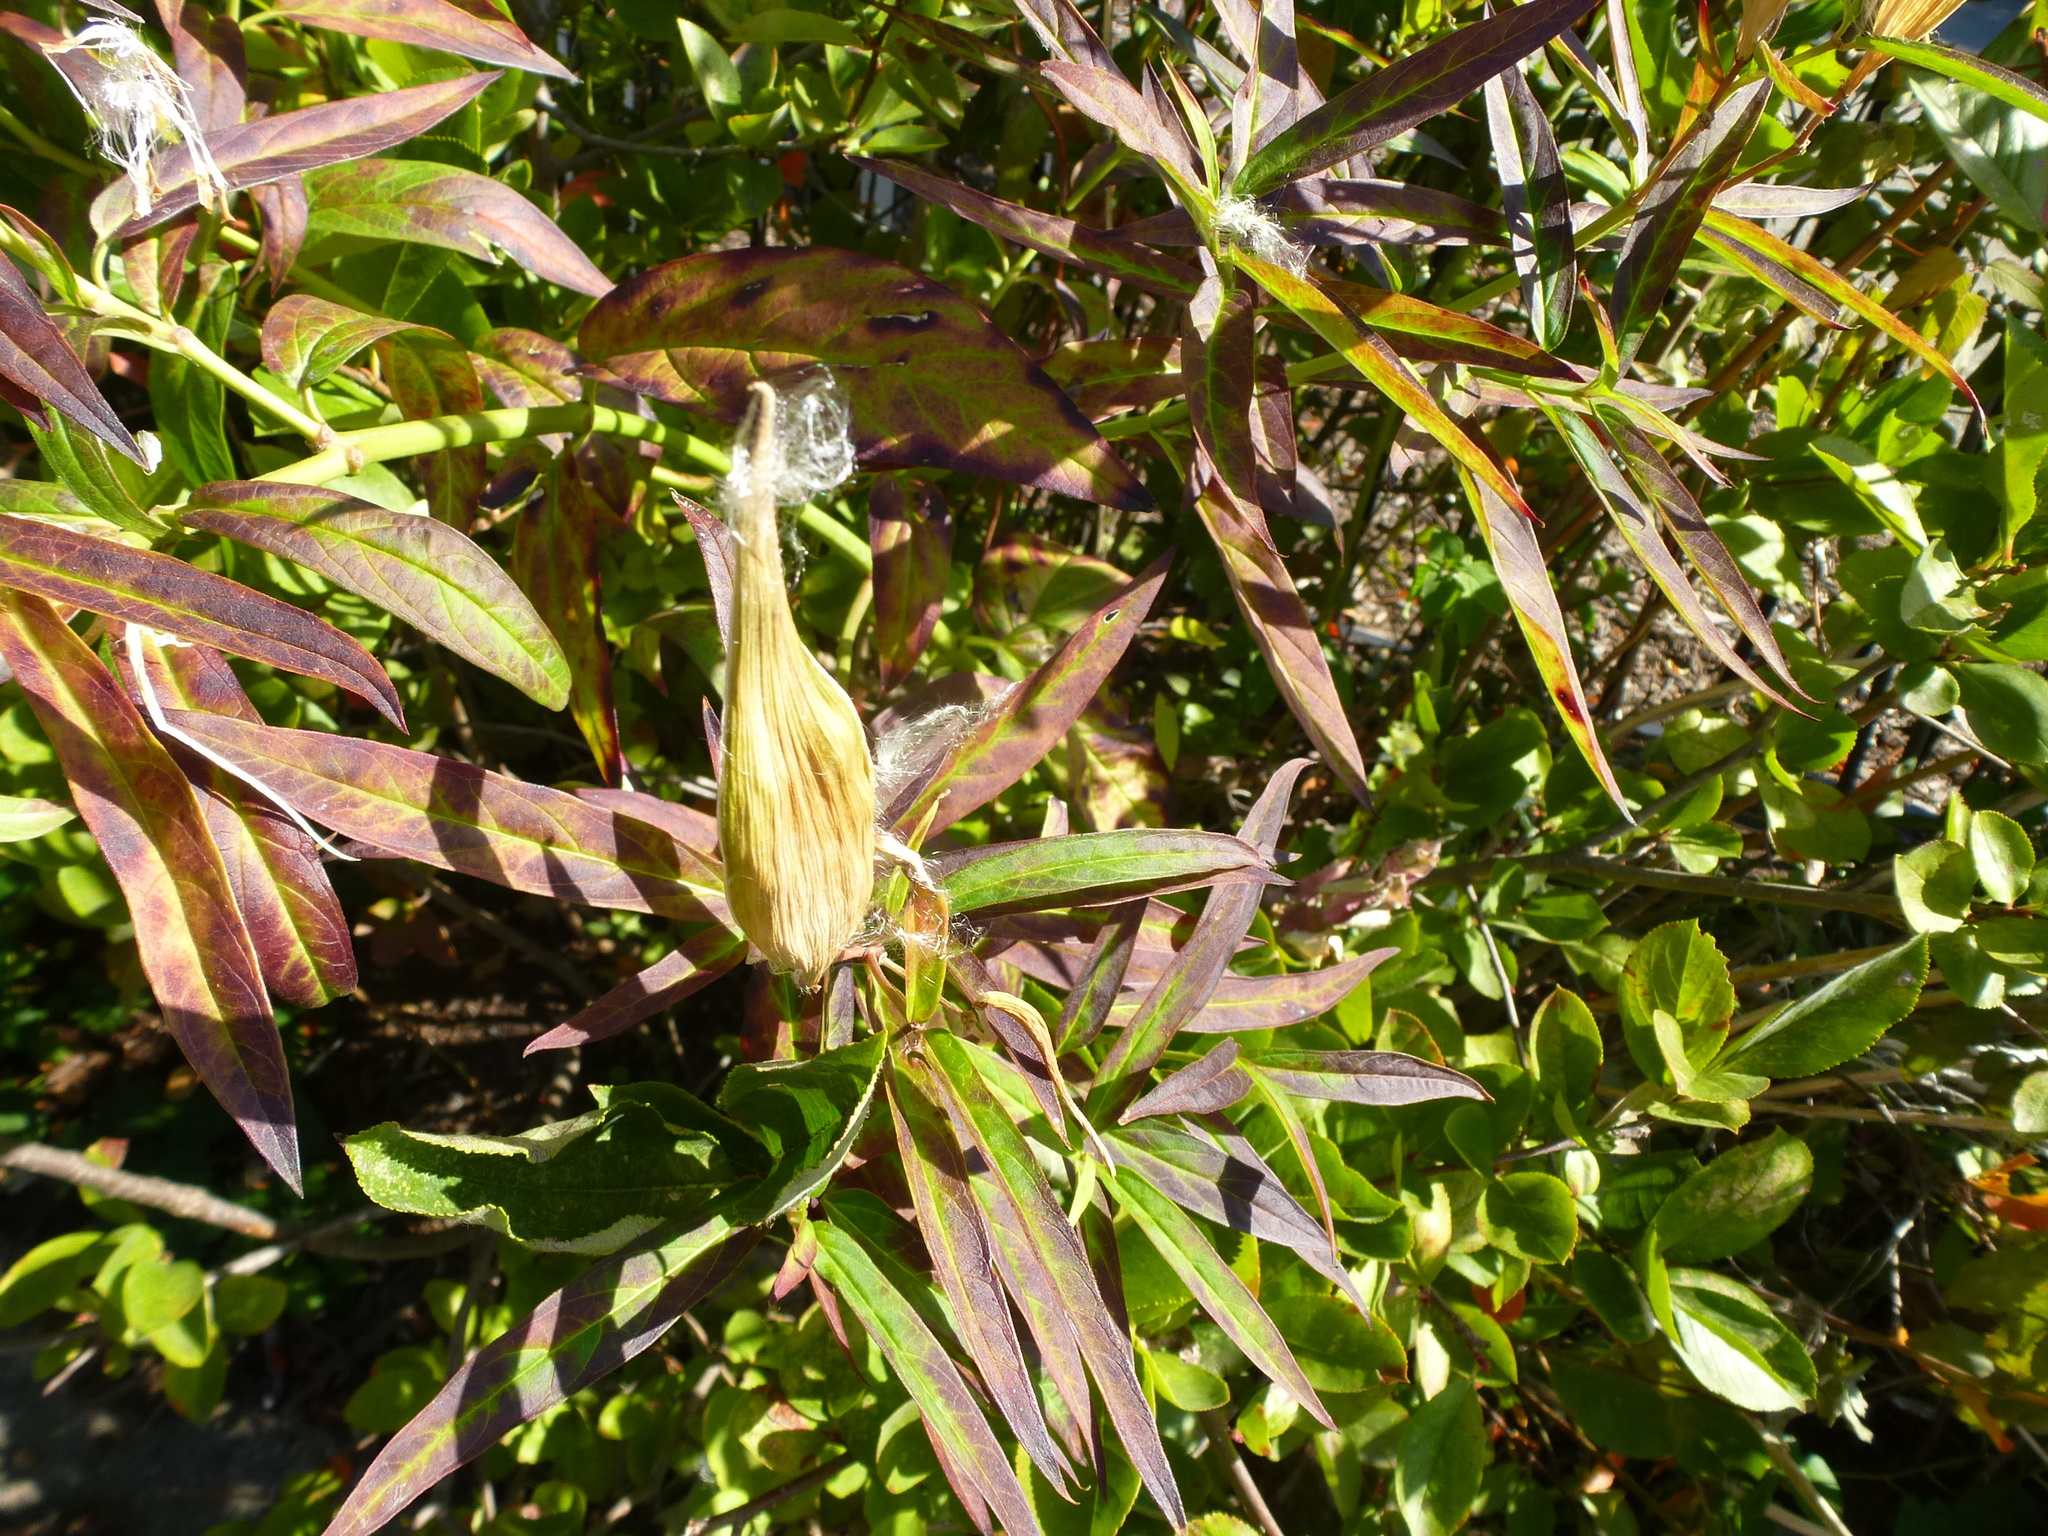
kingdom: Plantae
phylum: Tracheophyta
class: Magnoliopsida
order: Gentianales
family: Apocynaceae
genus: Asclepias
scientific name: Asclepias incarnata
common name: Swamp milkweed
